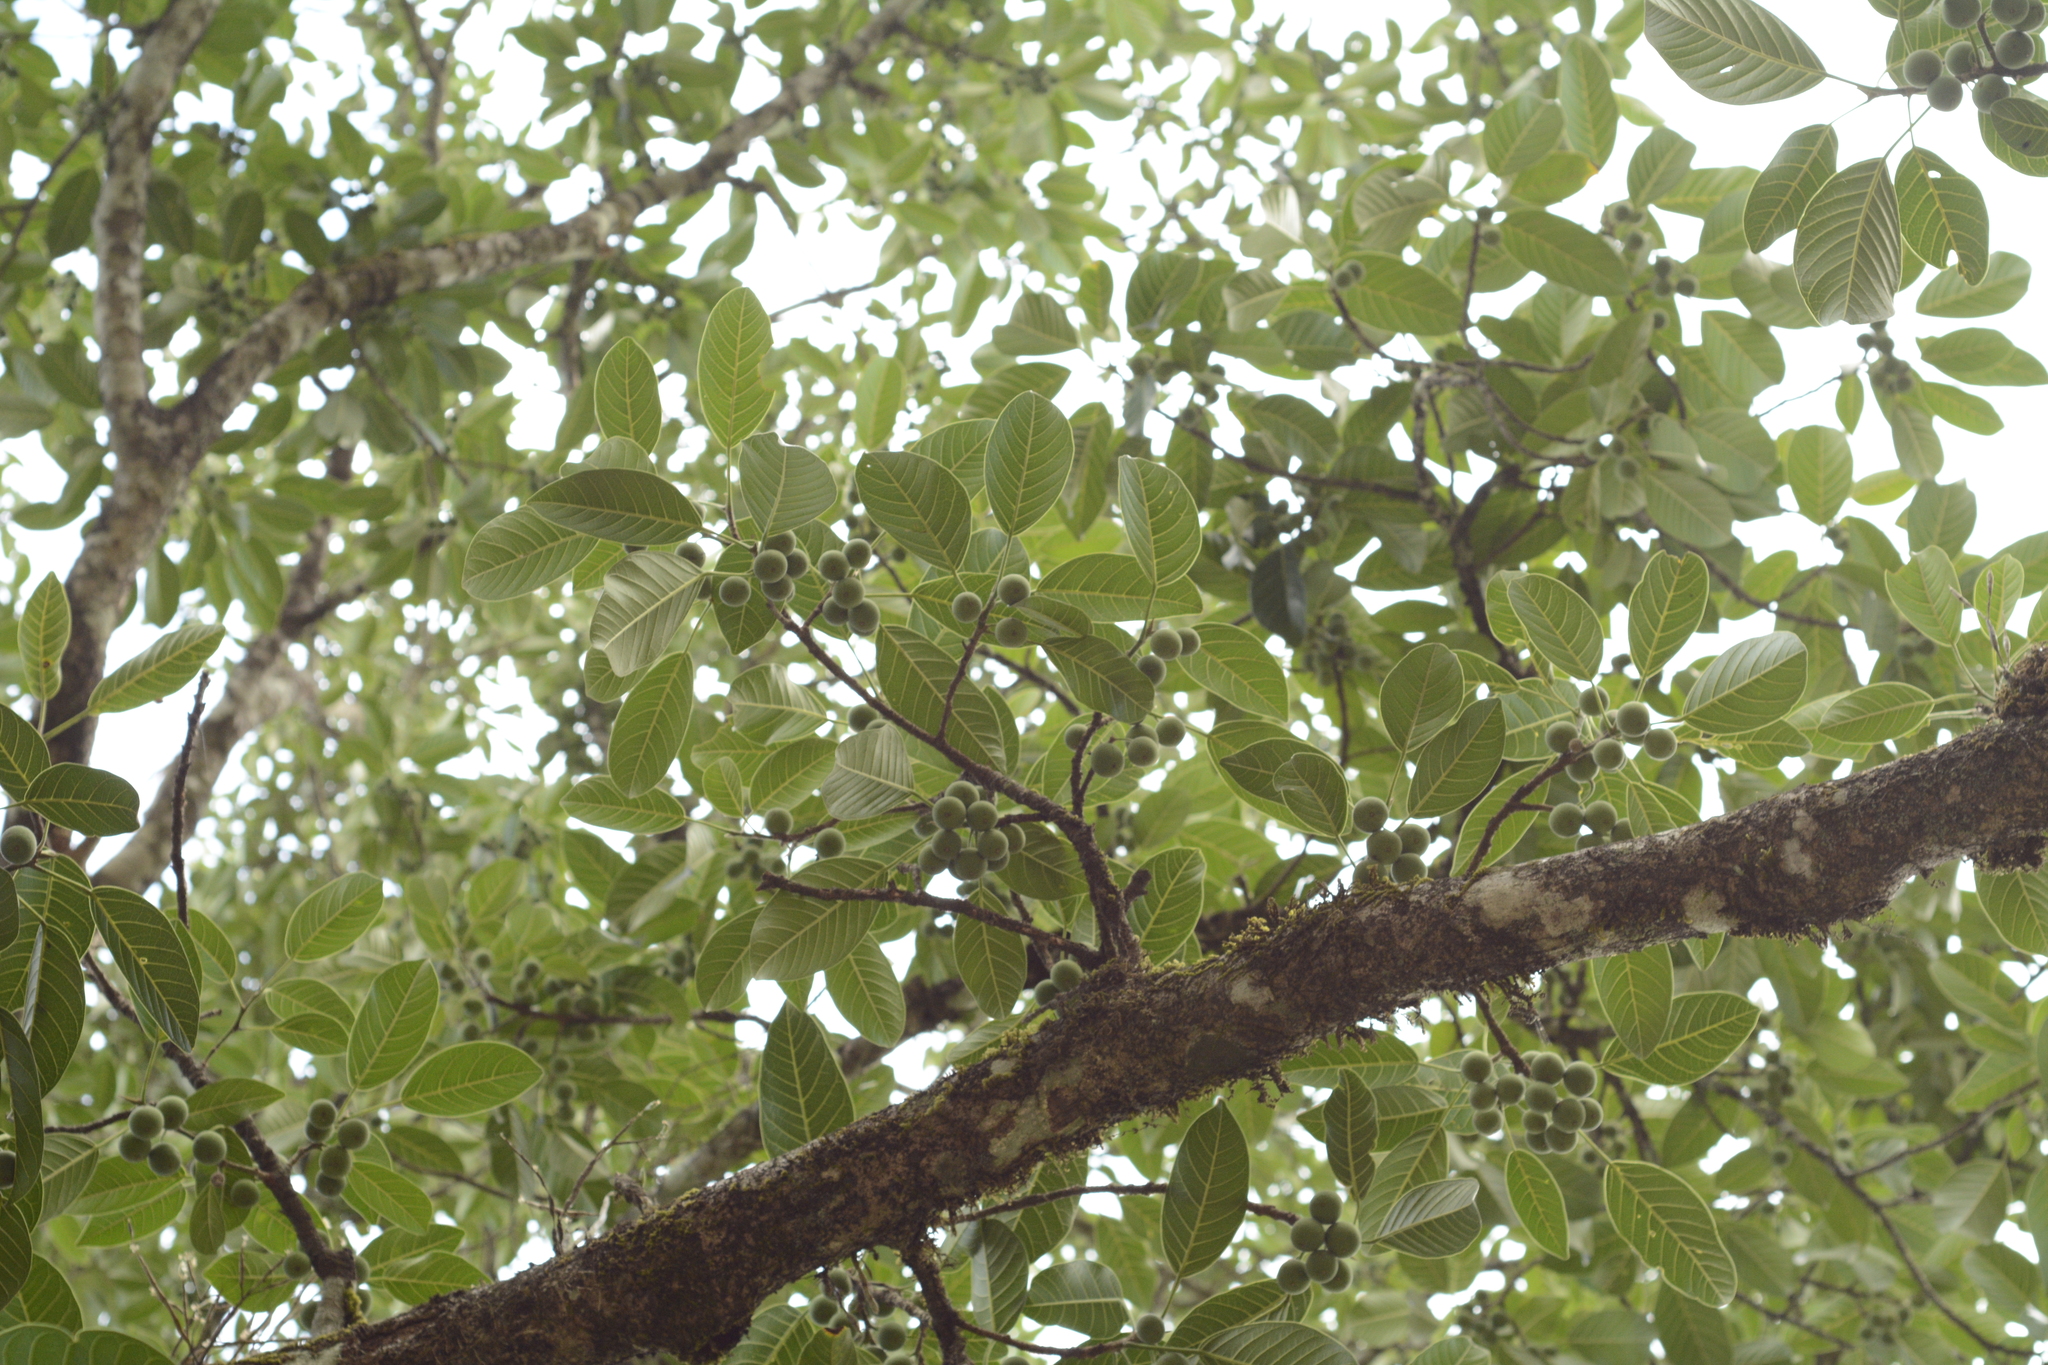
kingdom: Plantae
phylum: Tracheophyta
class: Magnoliopsida
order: Rosales
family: Moraceae
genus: Ficus
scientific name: Ficus callosa
